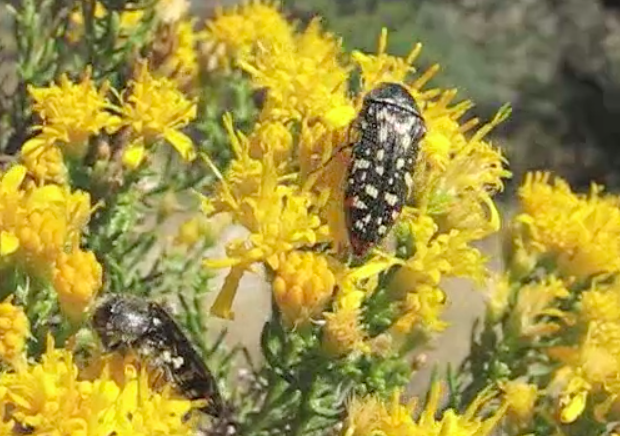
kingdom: Animalia
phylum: Arthropoda
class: Insecta
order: Coleoptera
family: Buprestidae
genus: Acmaeodera
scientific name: Acmaeodera rubronotata
